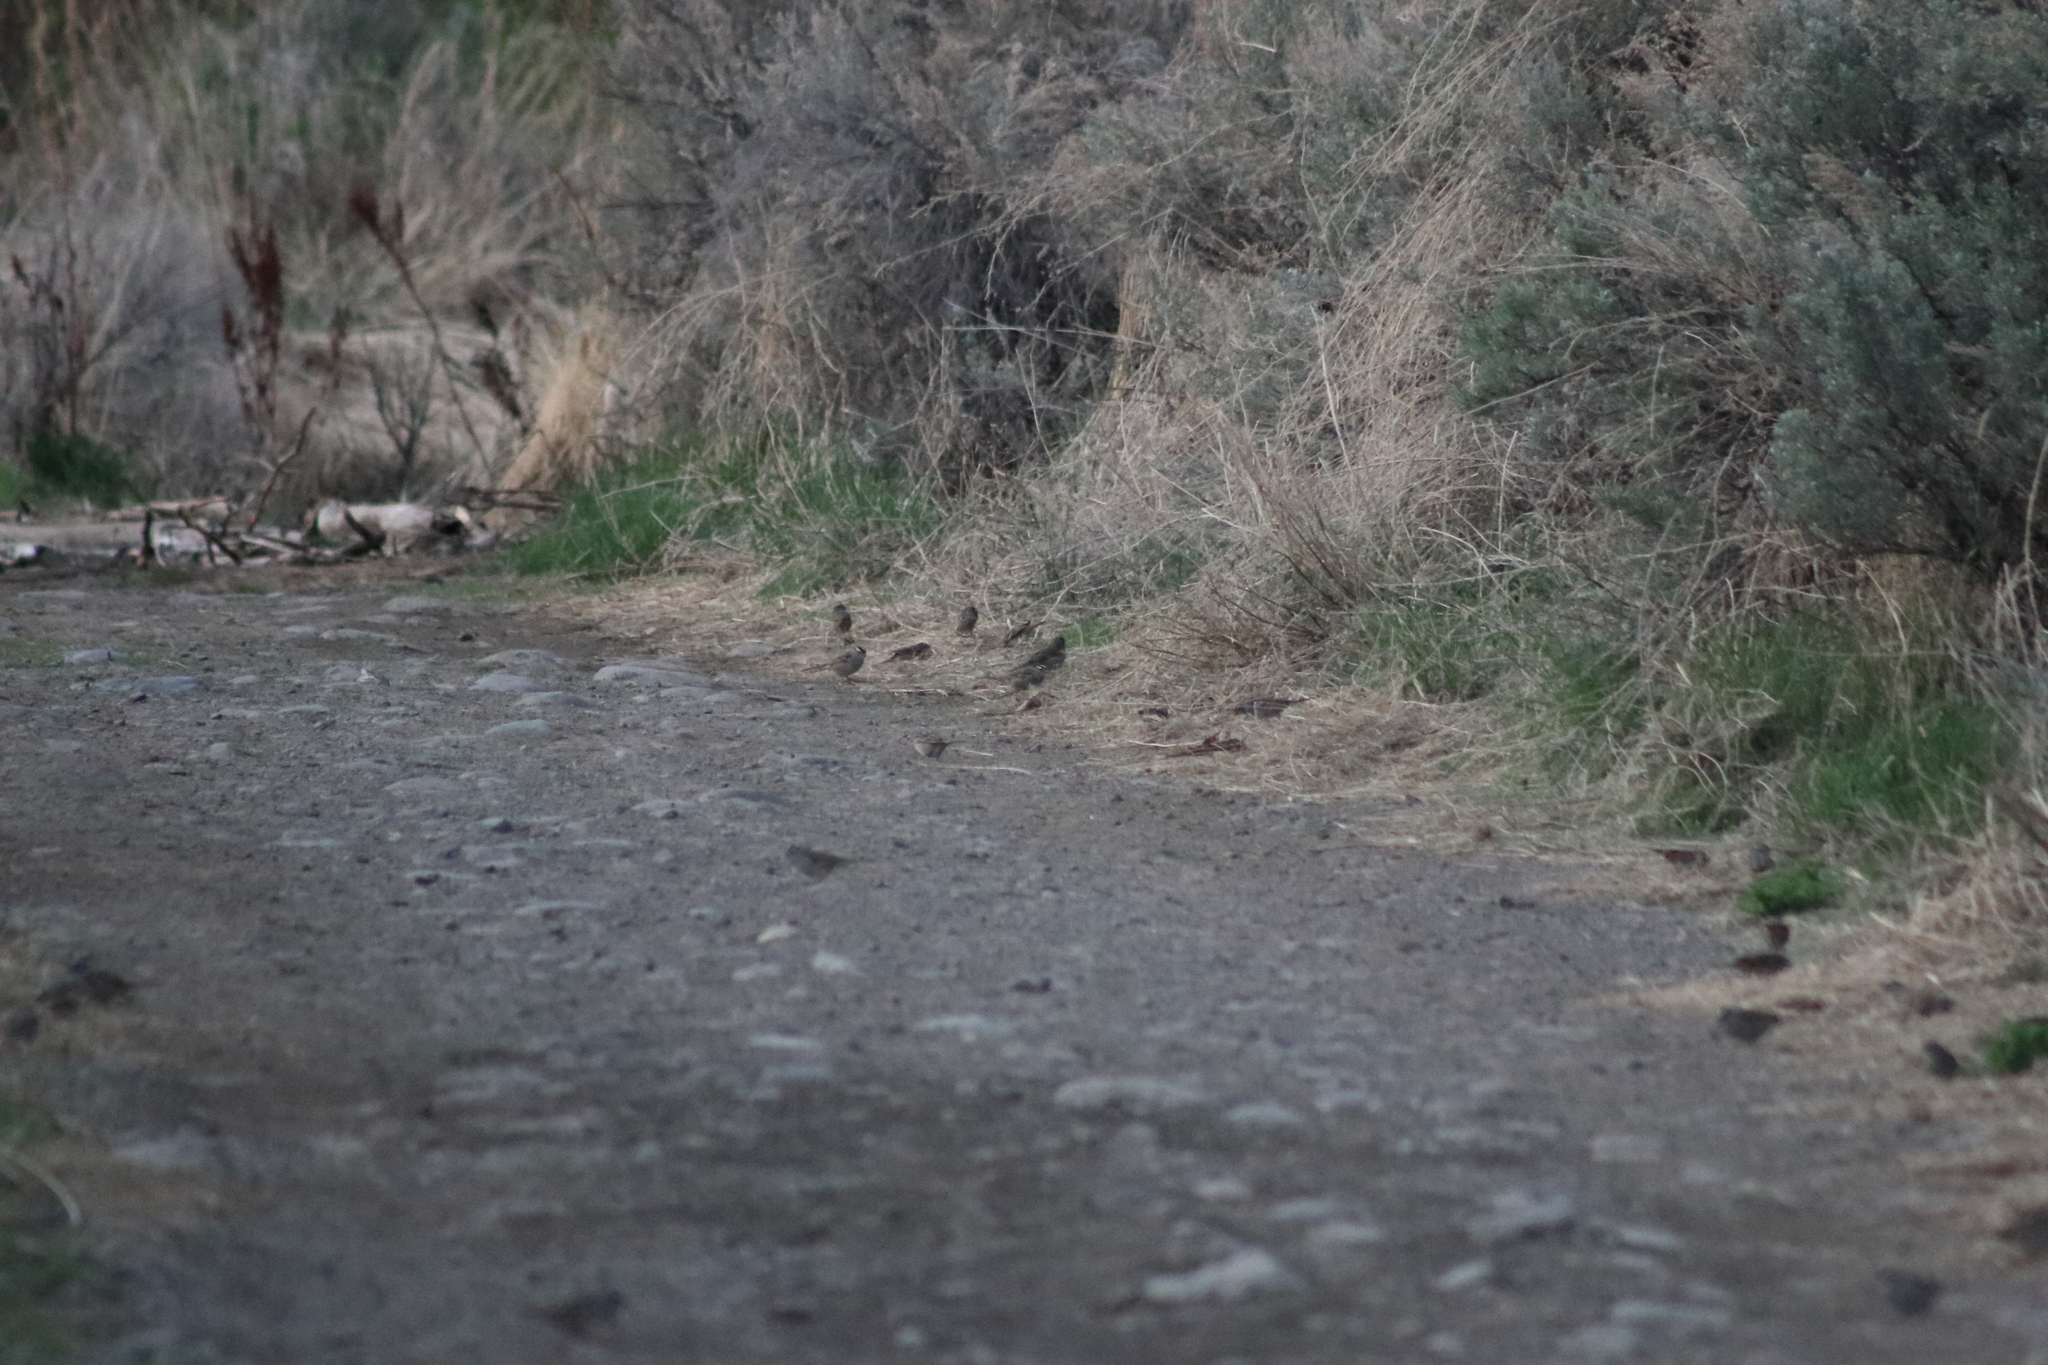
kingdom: Animalia
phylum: Chordata
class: Aves
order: Passeriformes
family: Passerellidae
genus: Zonotrichia
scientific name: Zonotrichia leucophrys
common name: White-crowned sparrow
